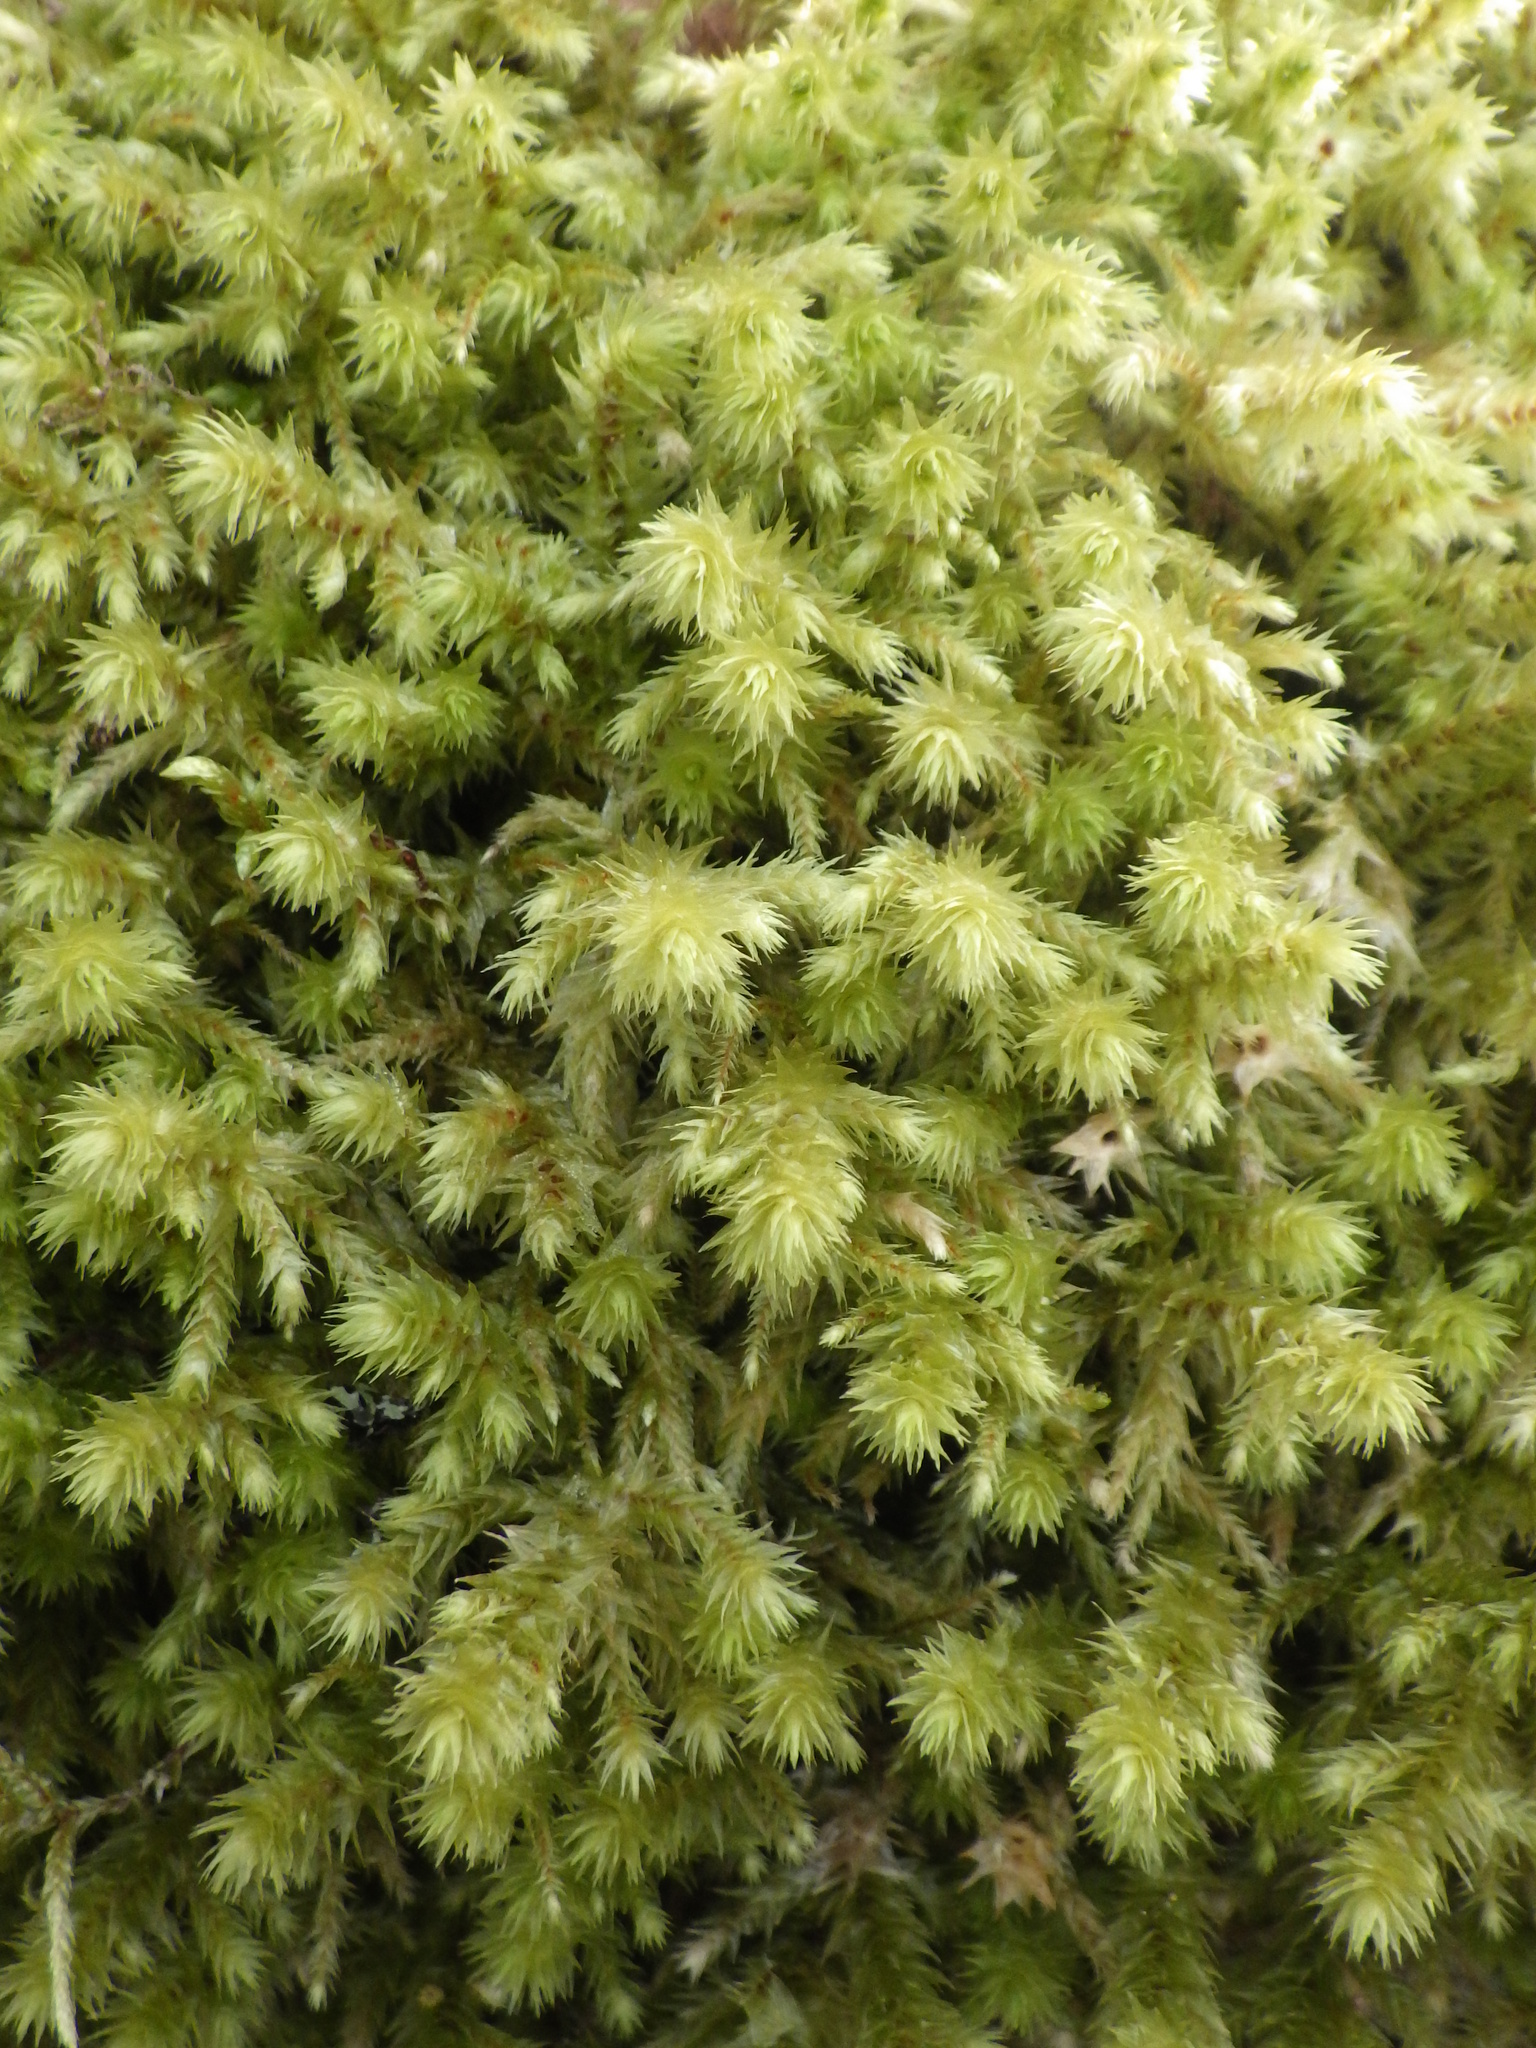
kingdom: Plantae
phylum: Bryophyta
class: Bryopsida
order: Hypnales
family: Hylocomiaceae
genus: Hylocomiadelphus
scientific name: Hylocomiadelphus triquetrus
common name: Rough goose neck moss
